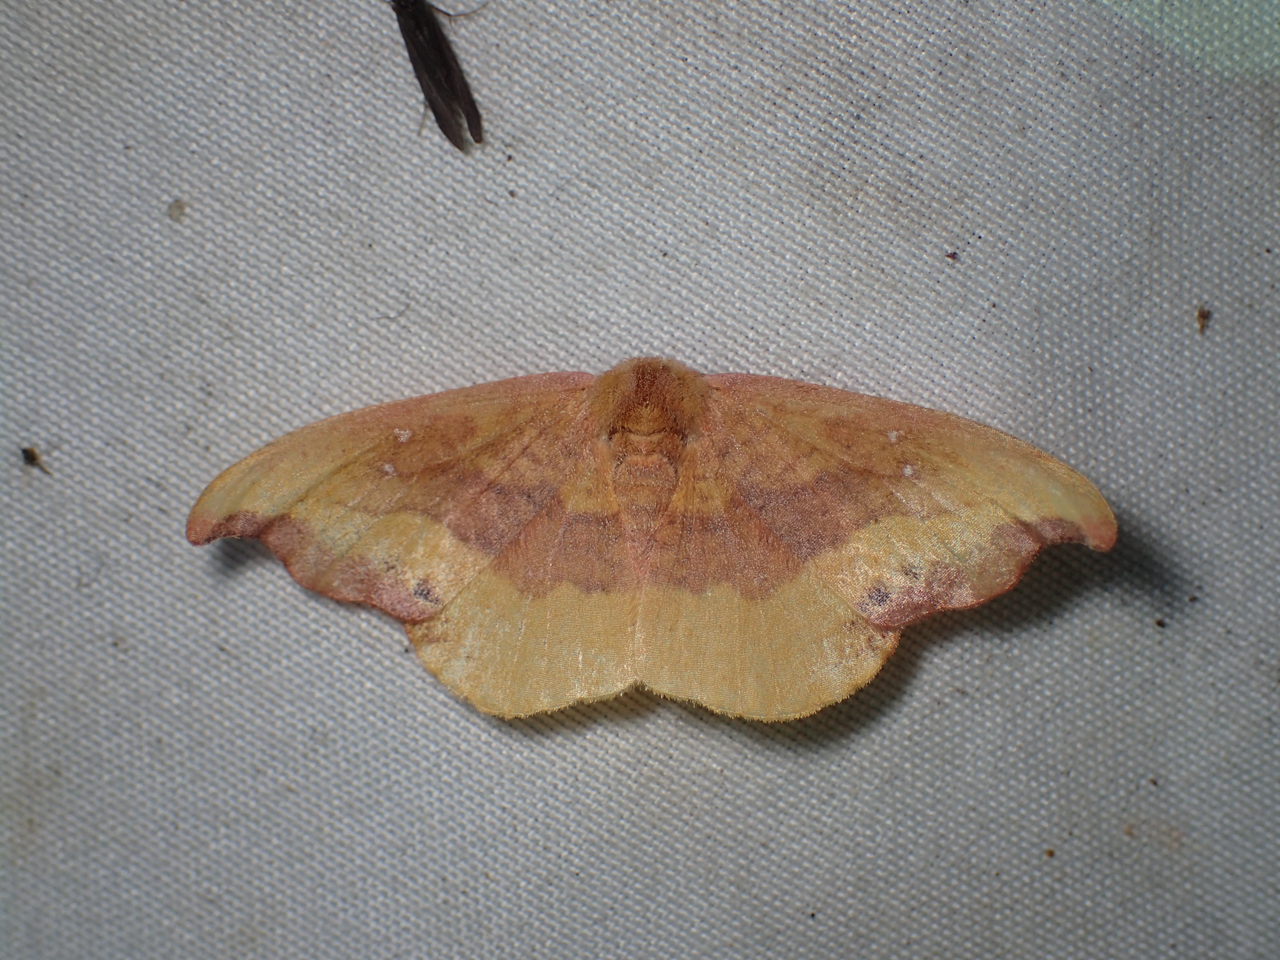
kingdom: Animalia
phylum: Arthropoda
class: Insecta
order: Lepidoptera
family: Drepanidae
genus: Oreta
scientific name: Oreta rosea
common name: Rose hooktip
